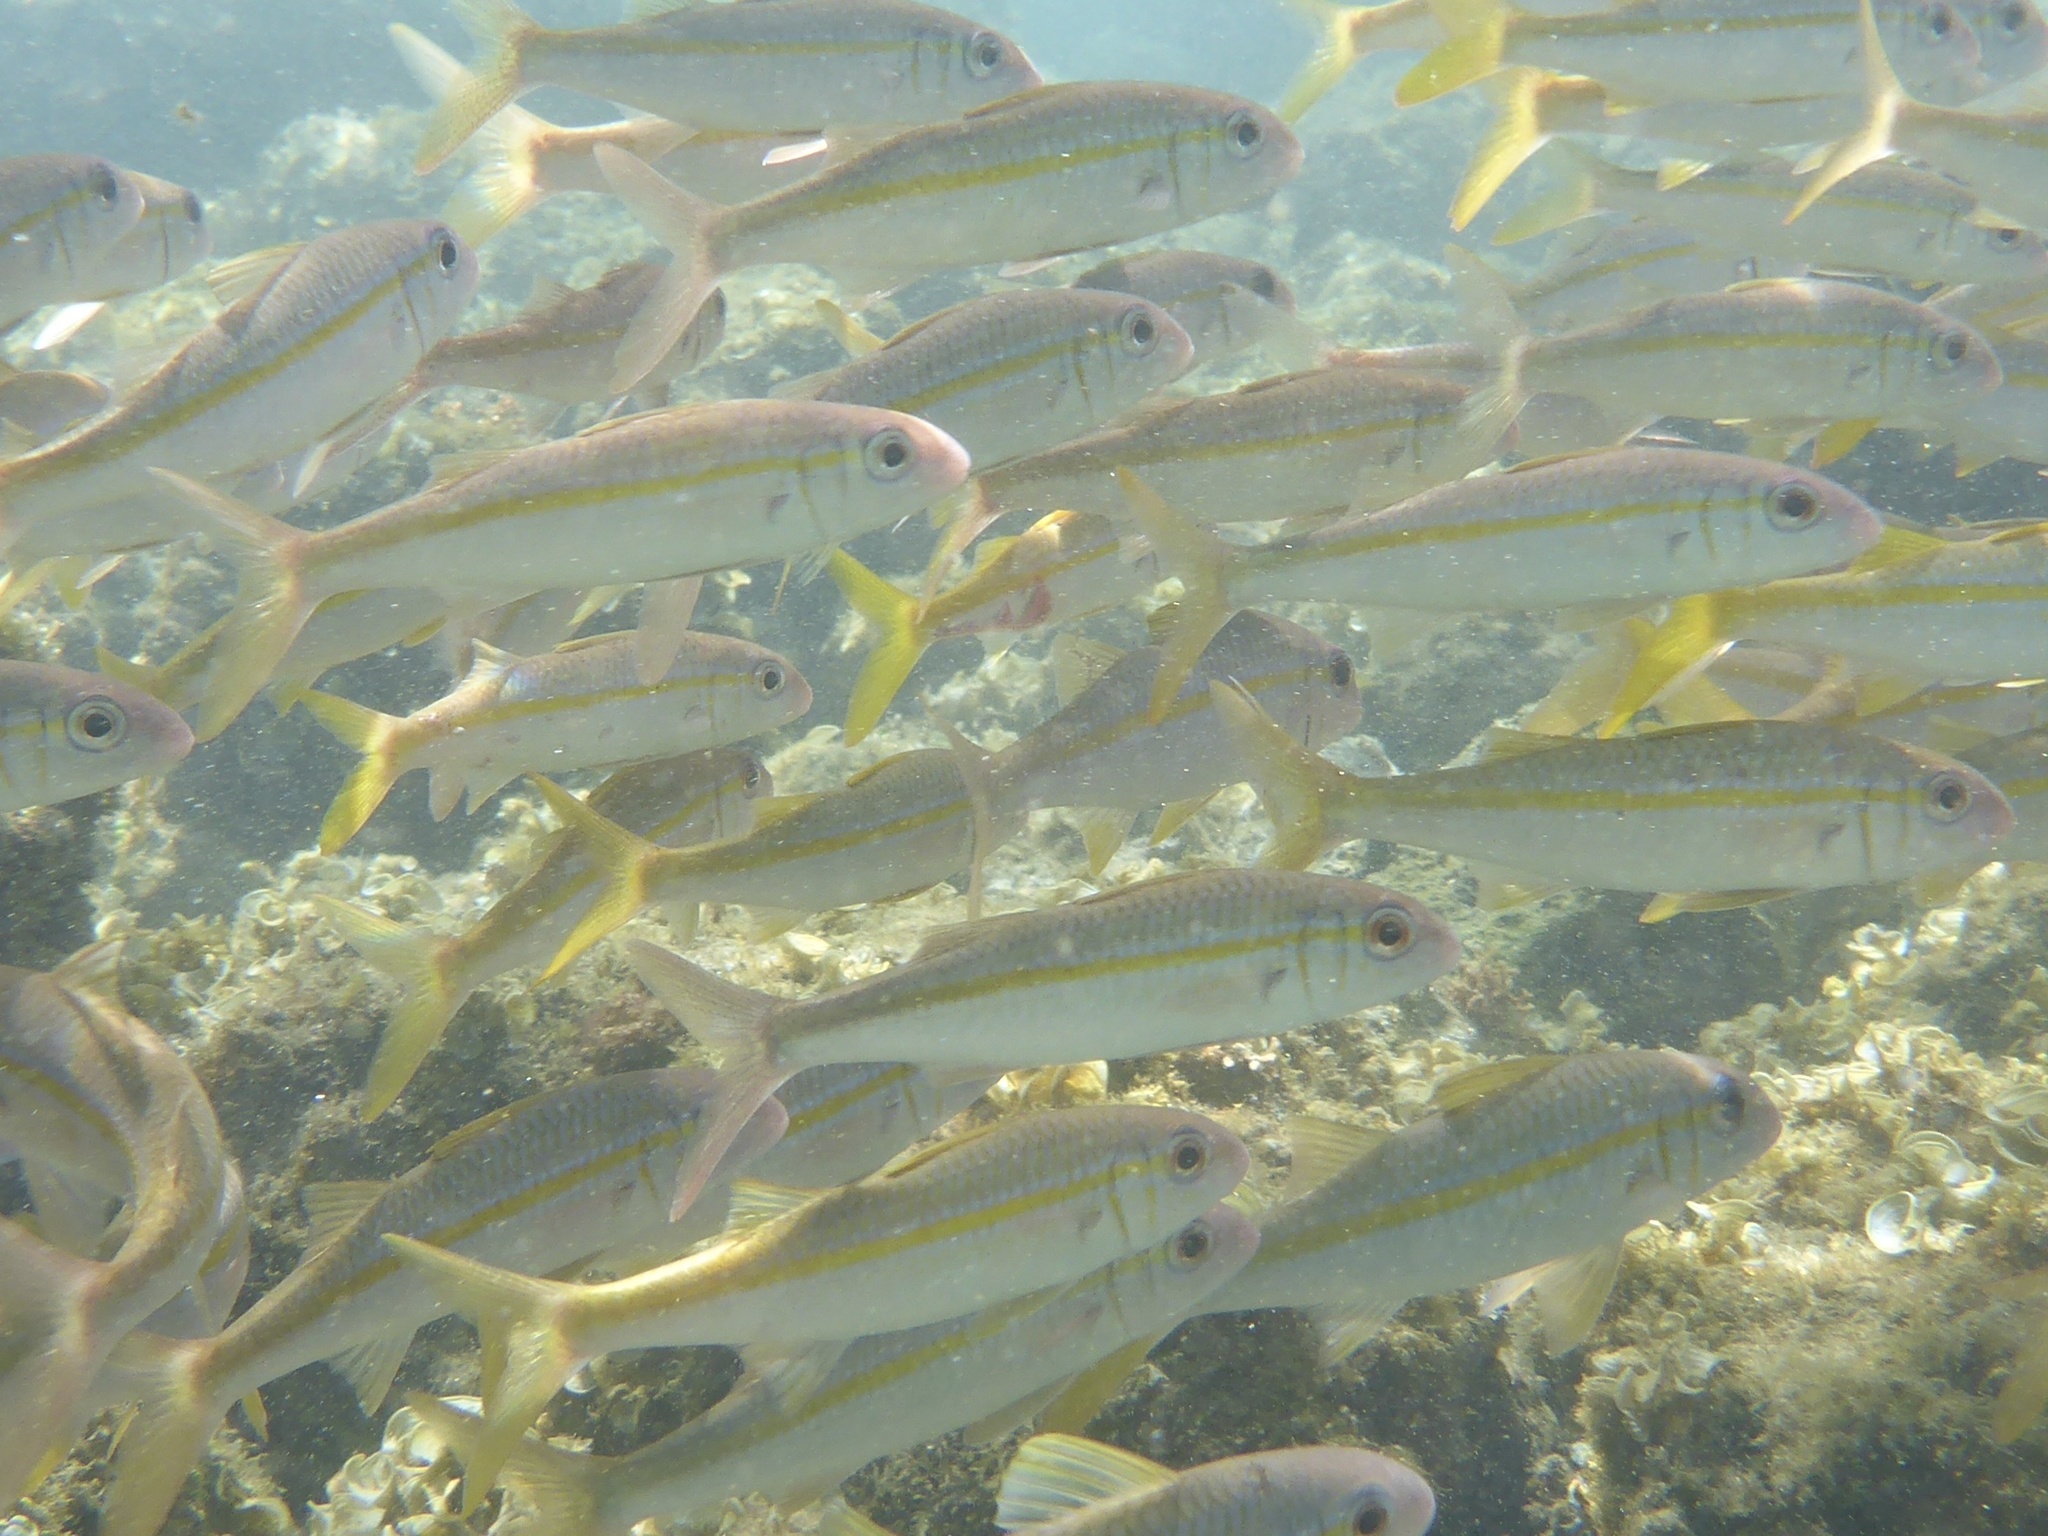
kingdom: Animalia
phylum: Chordata
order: Perciformes
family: Mullidae
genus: Mulloidichthys
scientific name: Mulloidichthys vanicolensis
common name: Yellowfin goatfish
